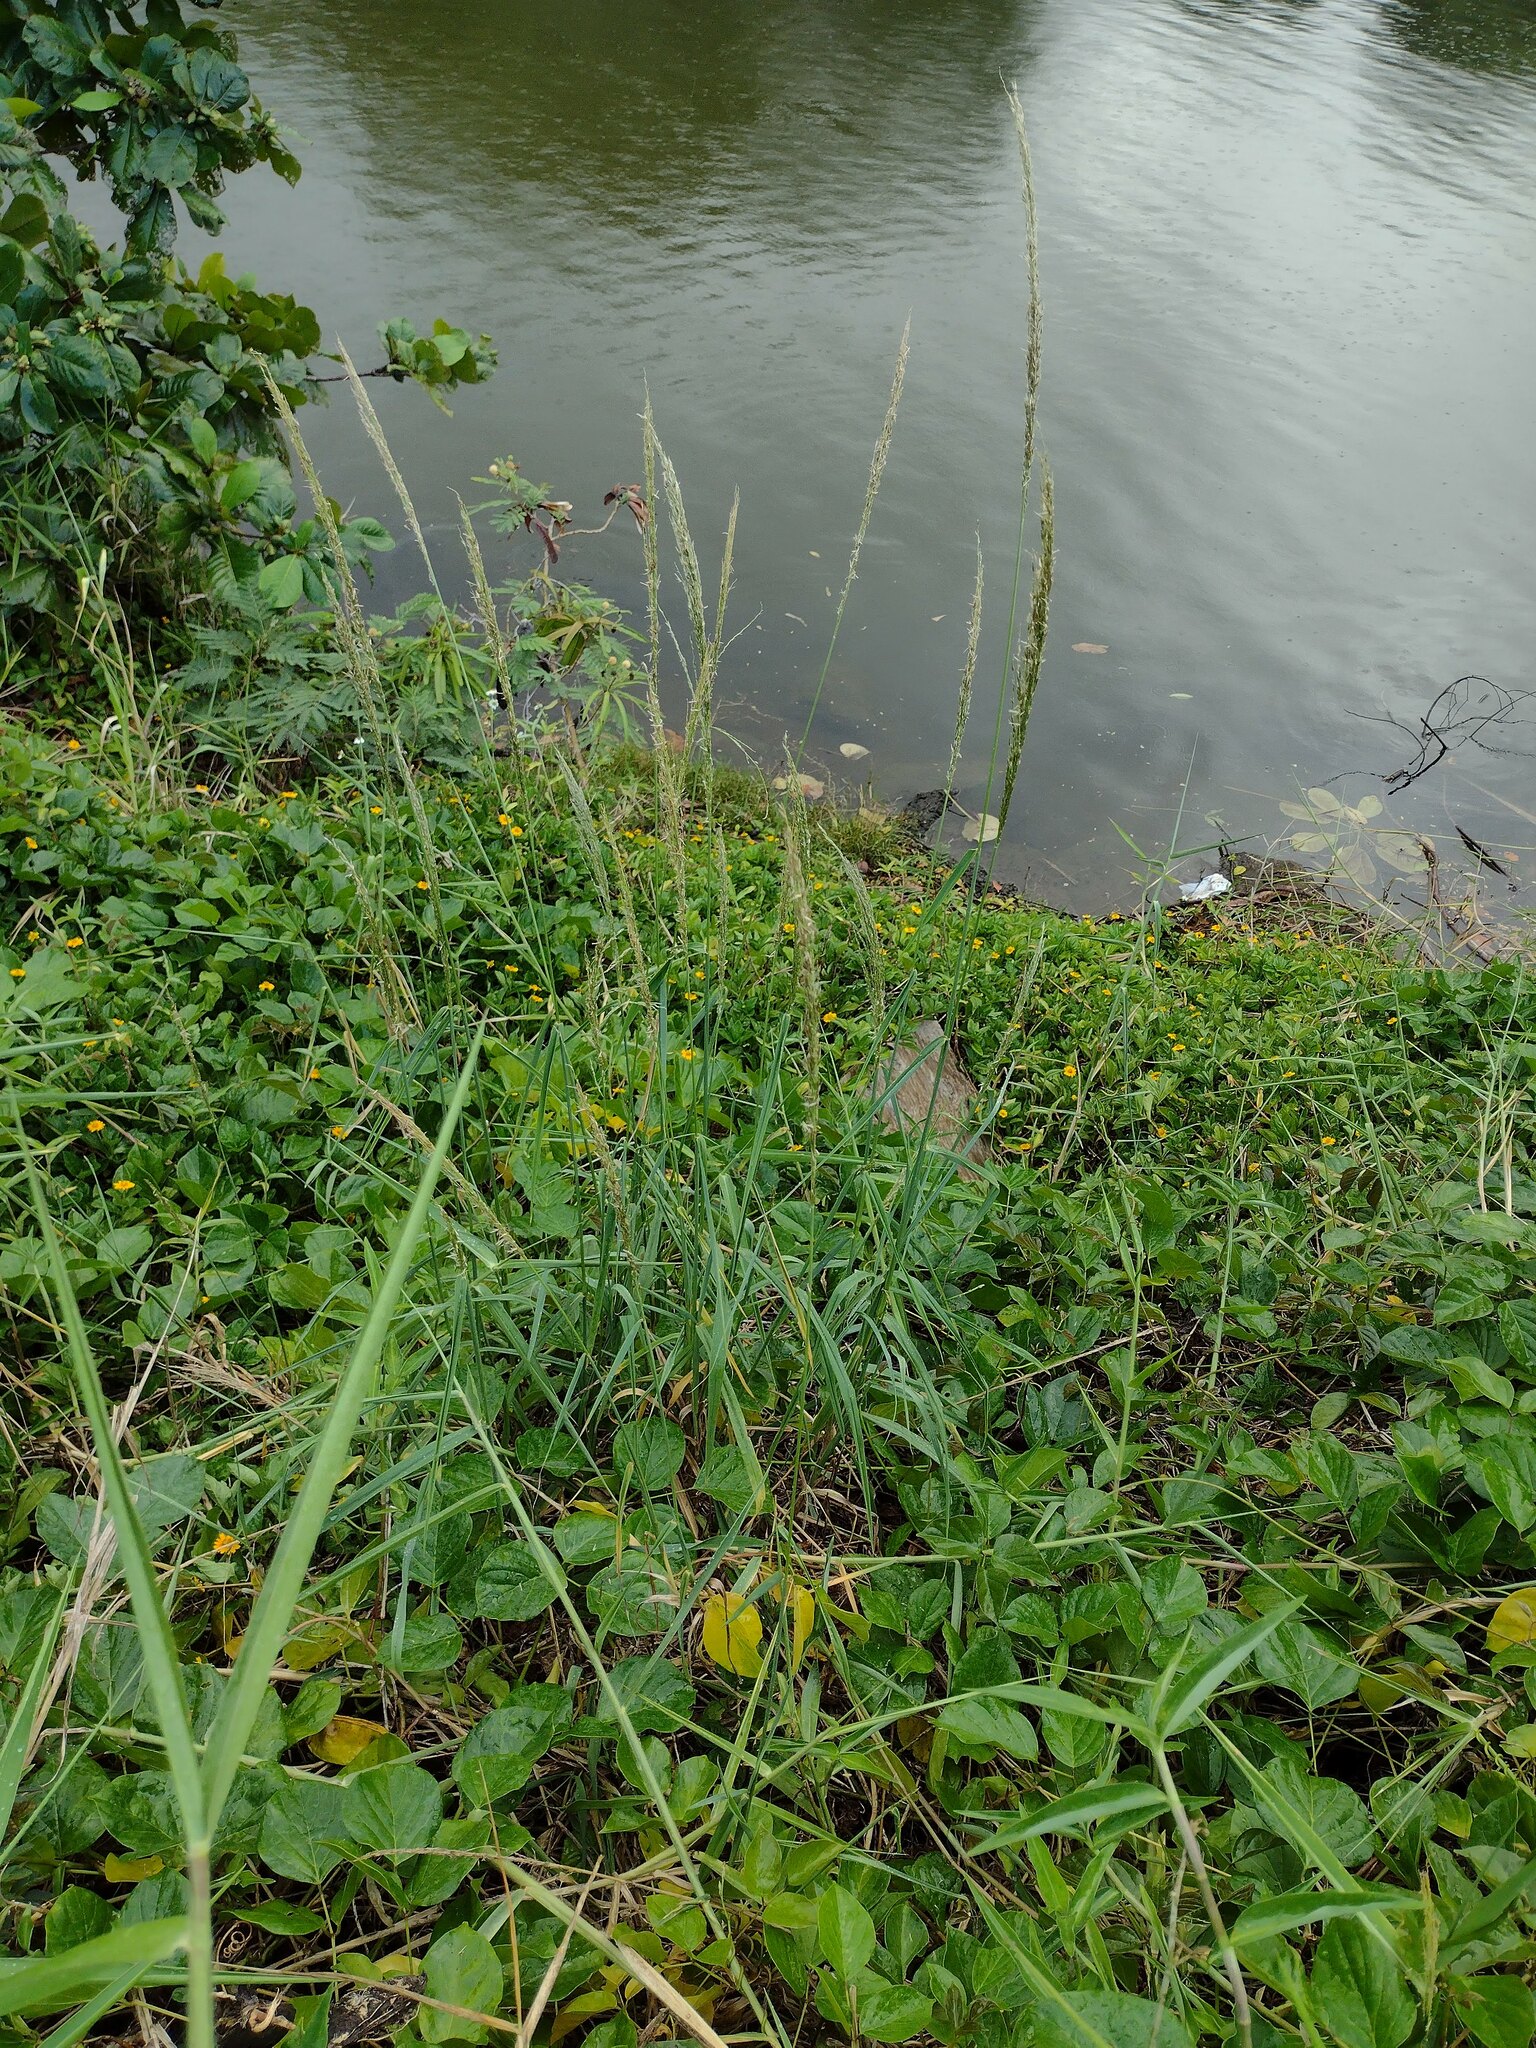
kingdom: Plantae
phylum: Tracheophyta
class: Liliopsida
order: Poales
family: Poaceae
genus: Digitaria
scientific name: Digitaria insularis
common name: Sourgrass
